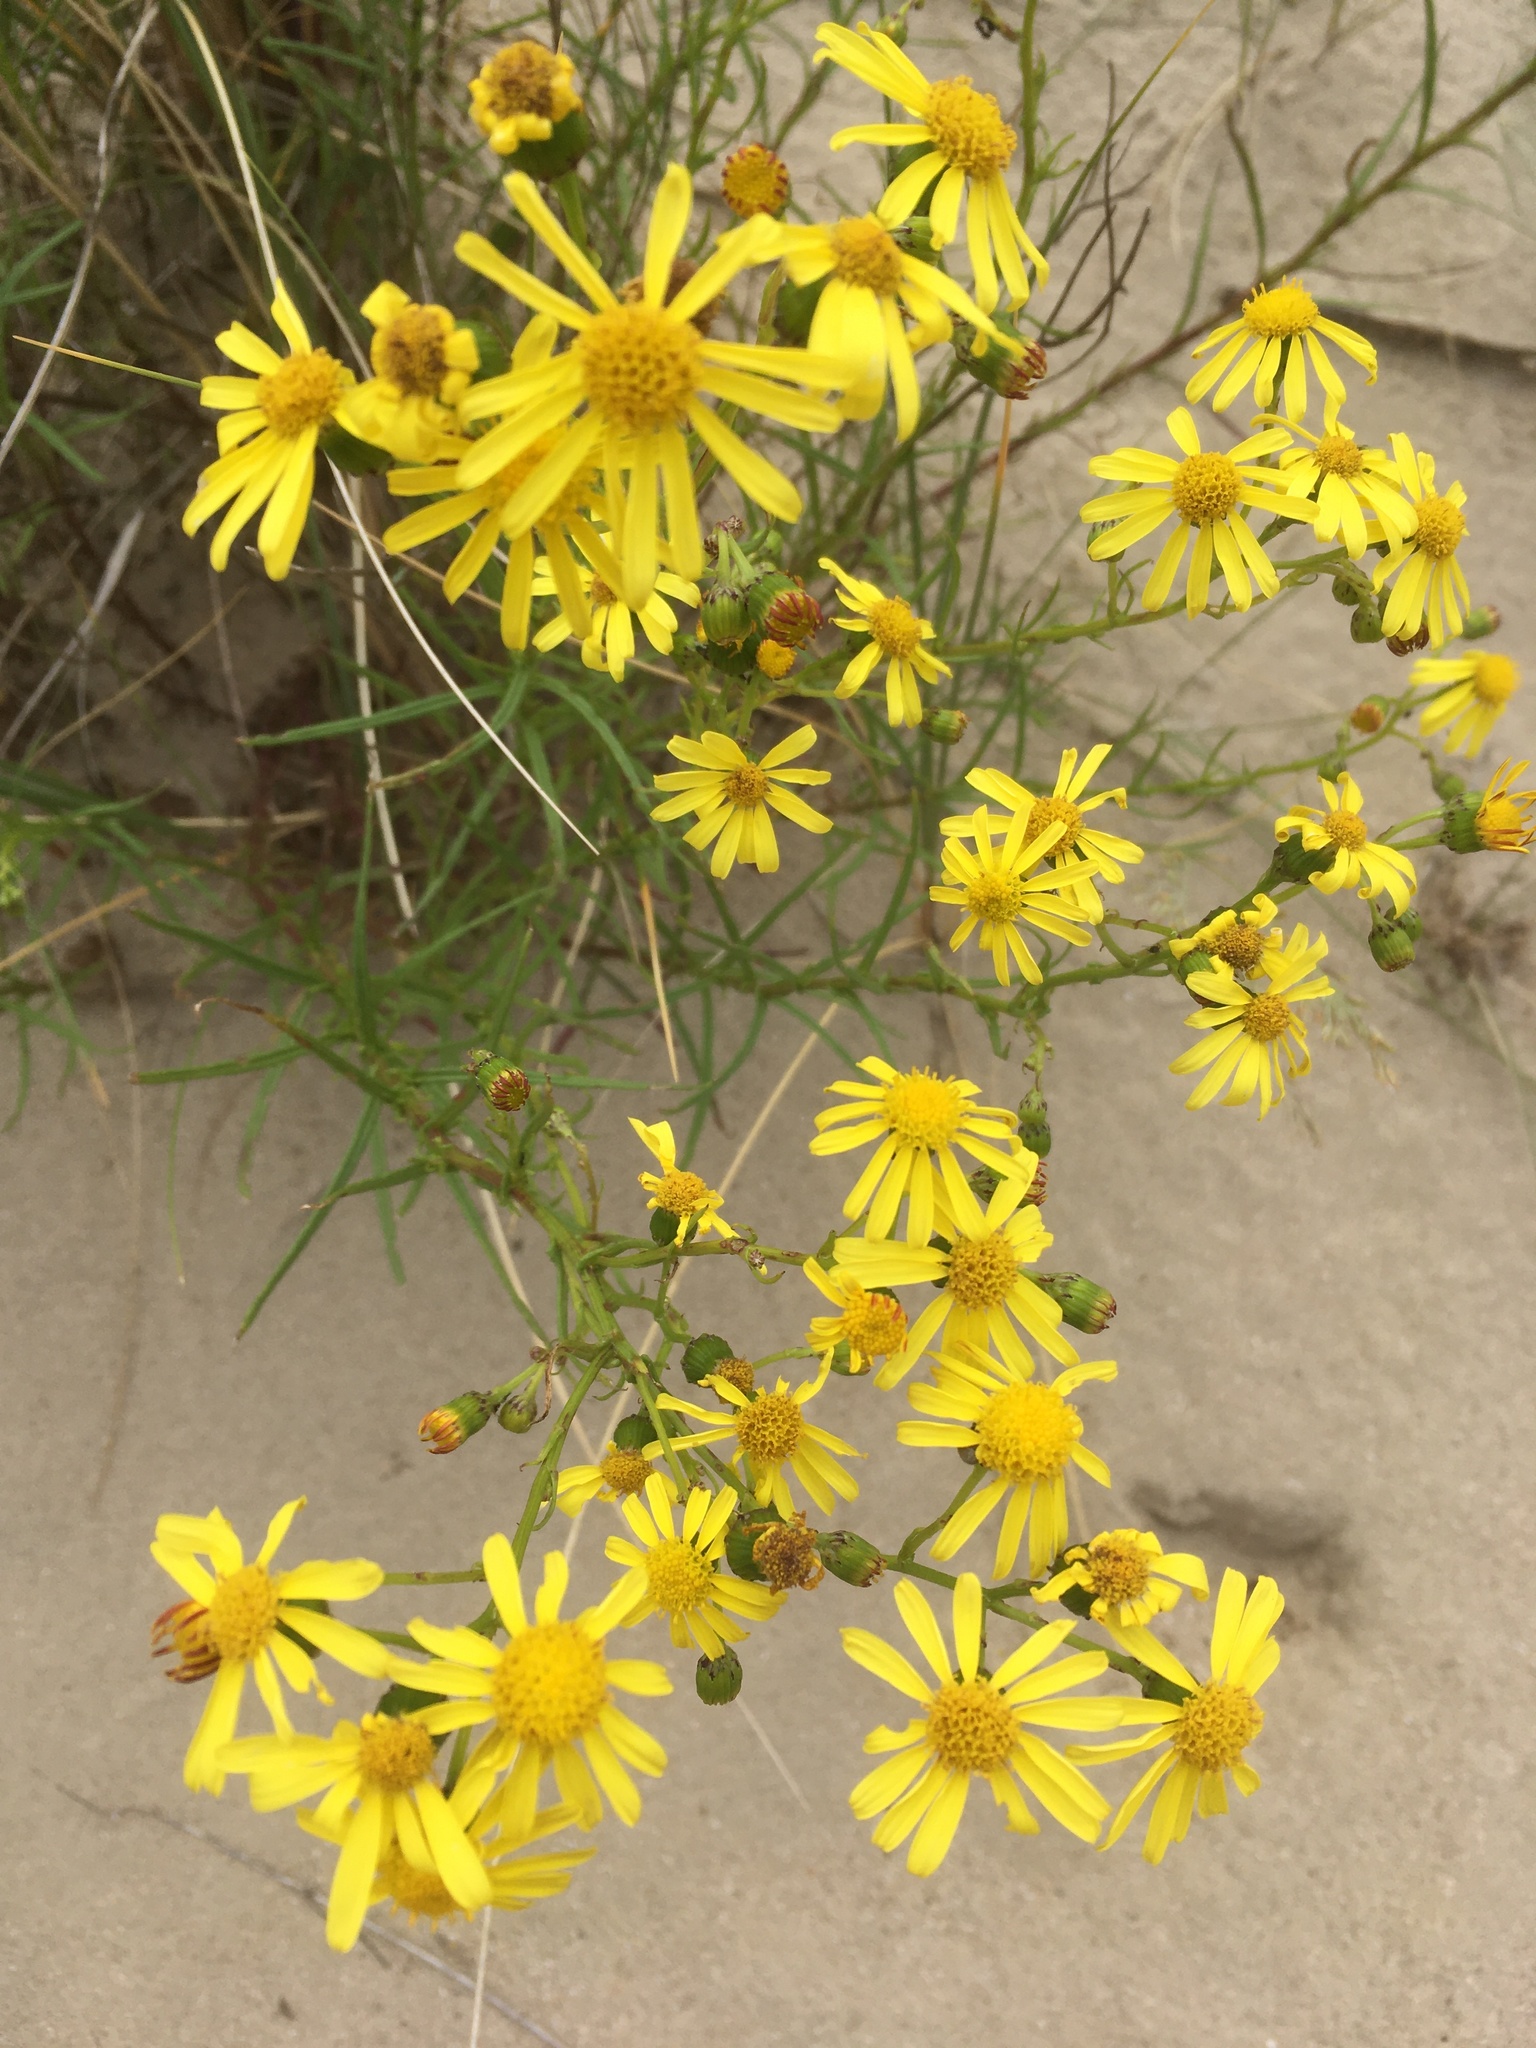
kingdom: Plantae
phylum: Tracheophyta
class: Magnoliopsida
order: Asterales
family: Asteraceae
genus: Senecio
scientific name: Senecio inaequidens
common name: Narrow-leaved ragwort
